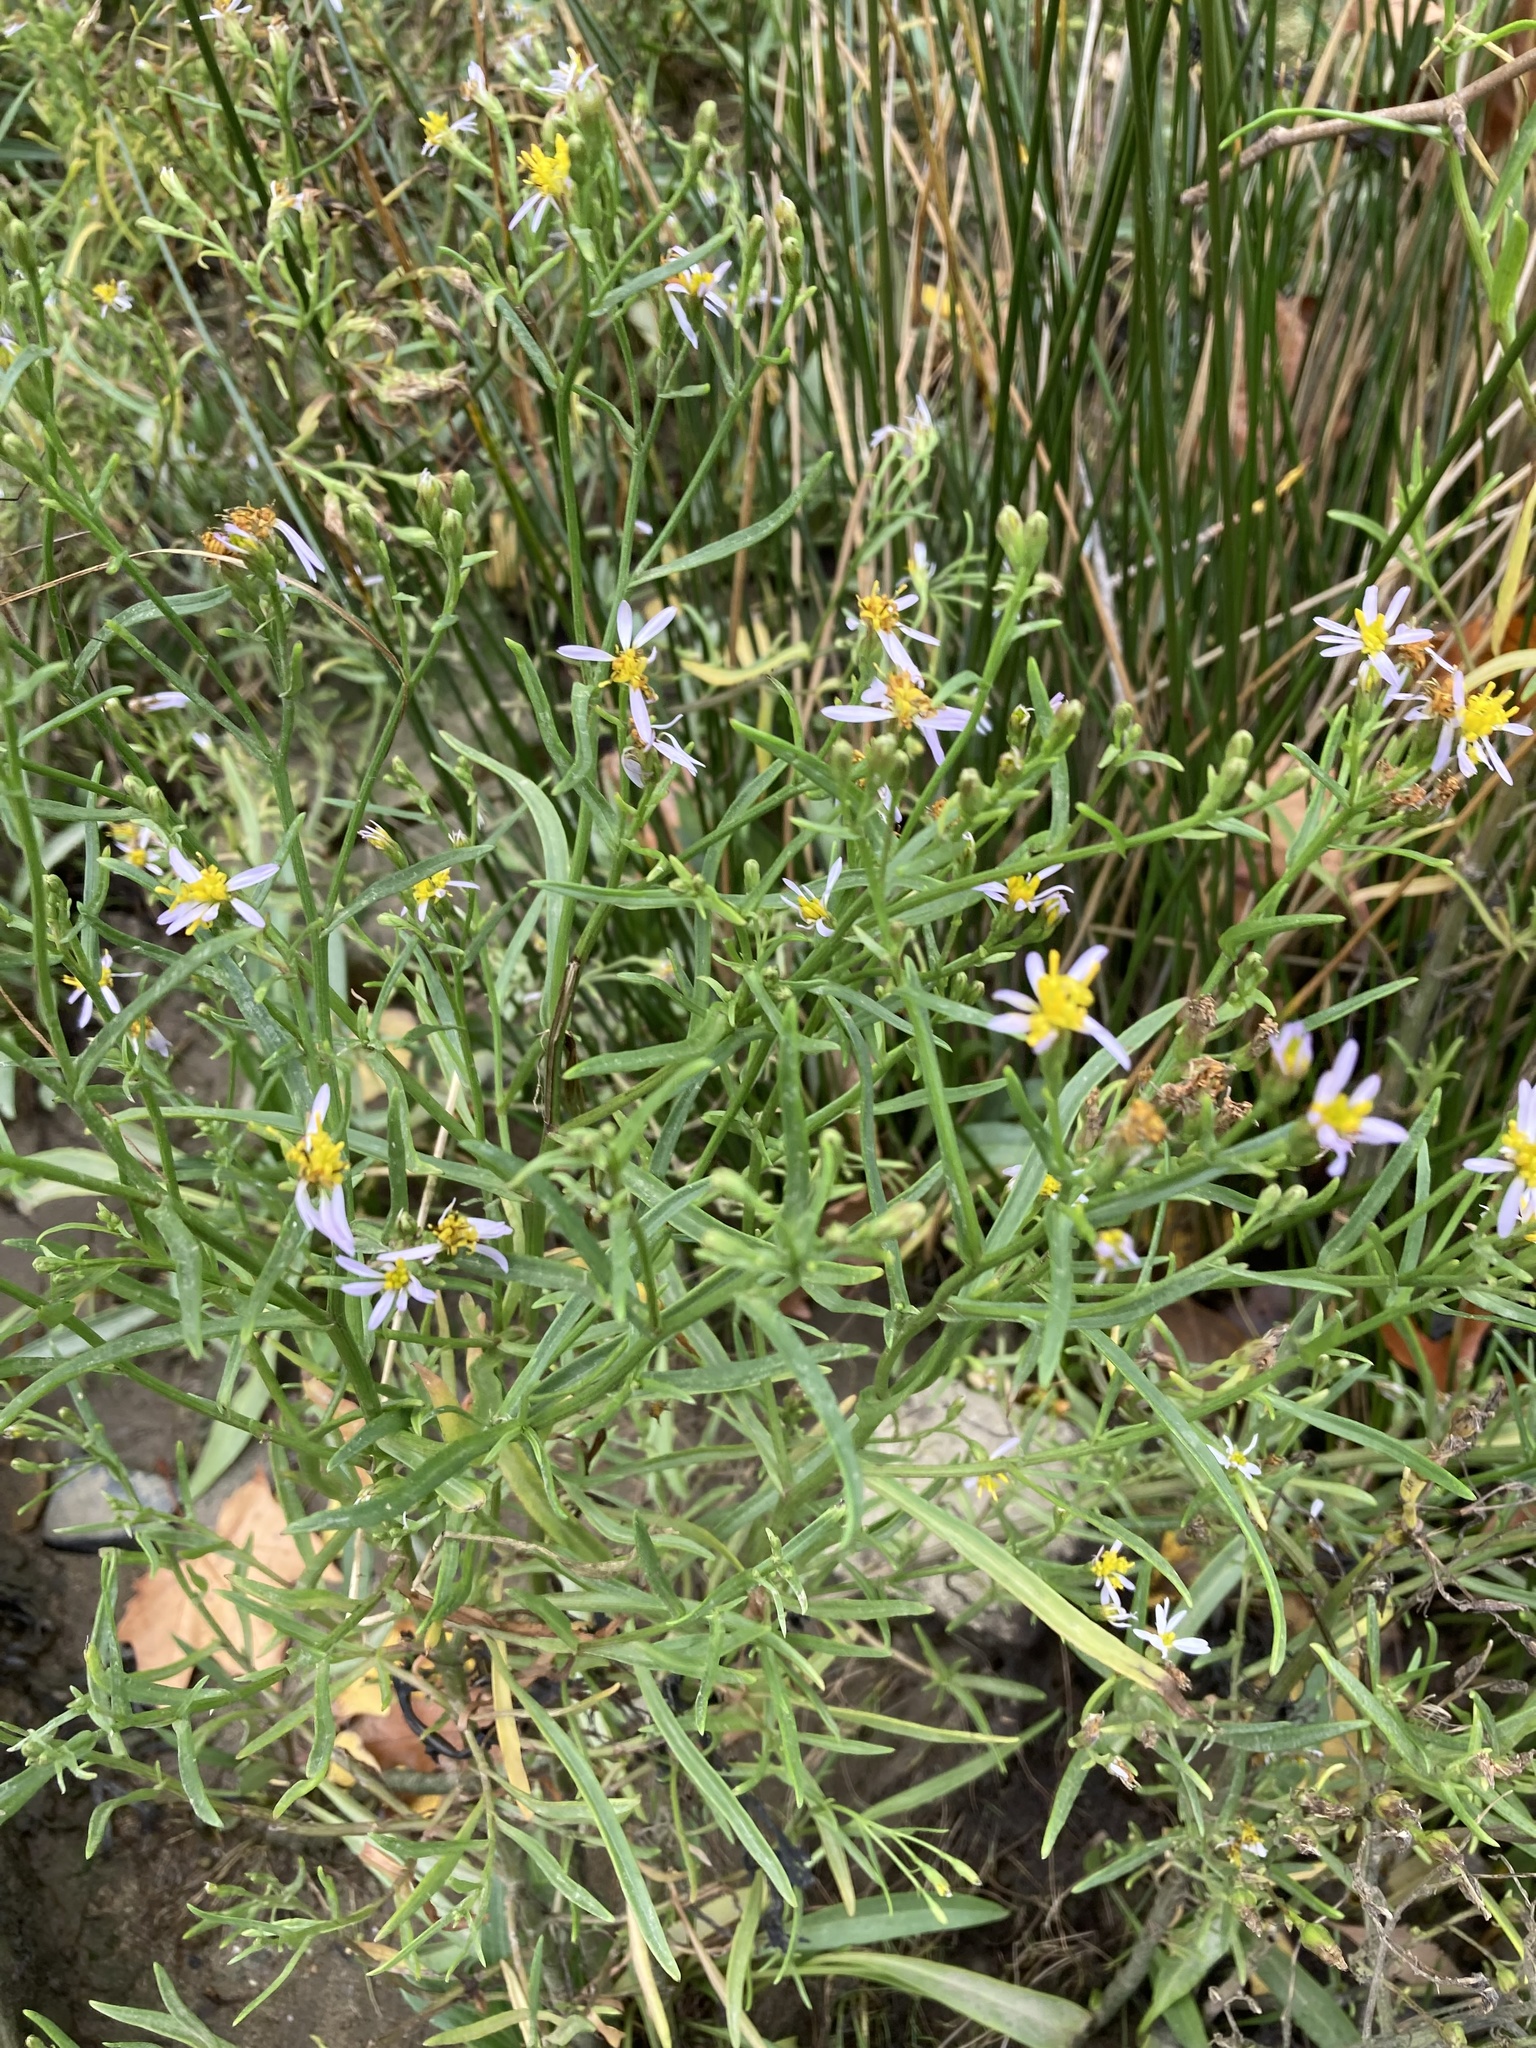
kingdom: Plantae
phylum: Tracheophyta
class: Magnoliopsida
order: Asterales
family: Asteraceae
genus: Tripolium
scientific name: Tripolium pannonicum
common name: Sea aster
